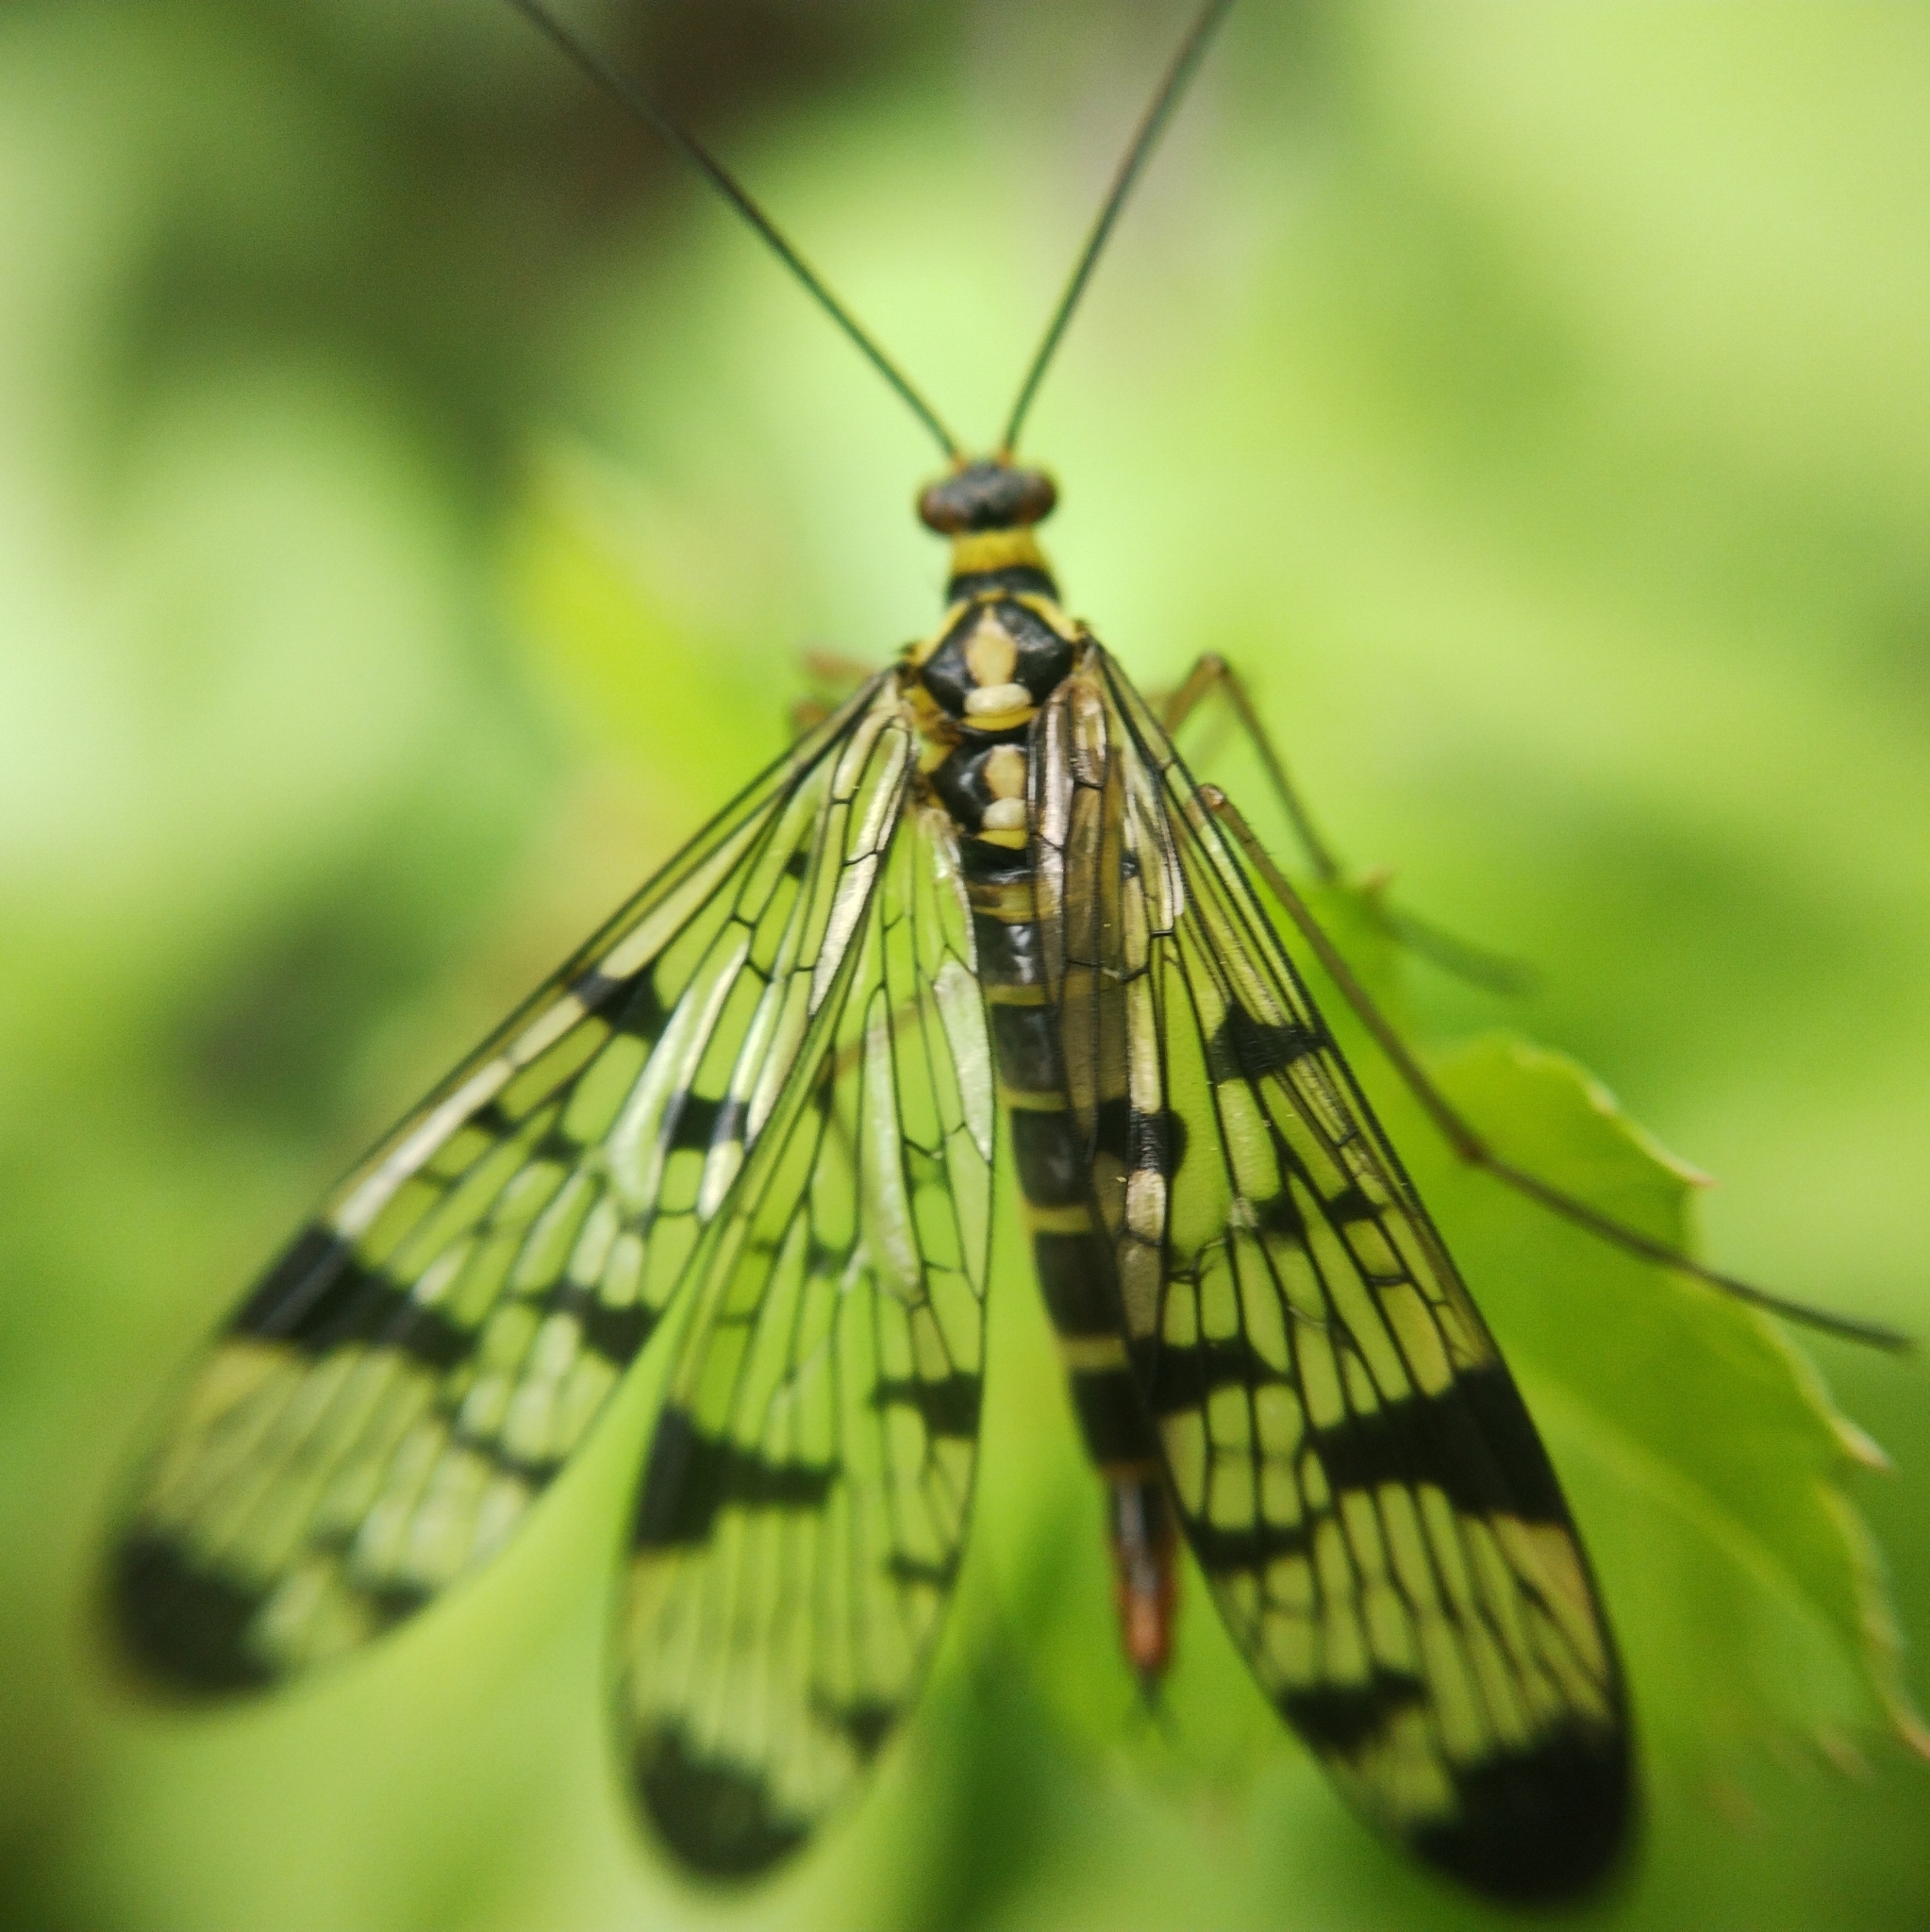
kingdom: Animalia
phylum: Arthropoda
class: Insecta
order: Mecoptera
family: Panorpidae
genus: Panorpa
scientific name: Panorpa communis
